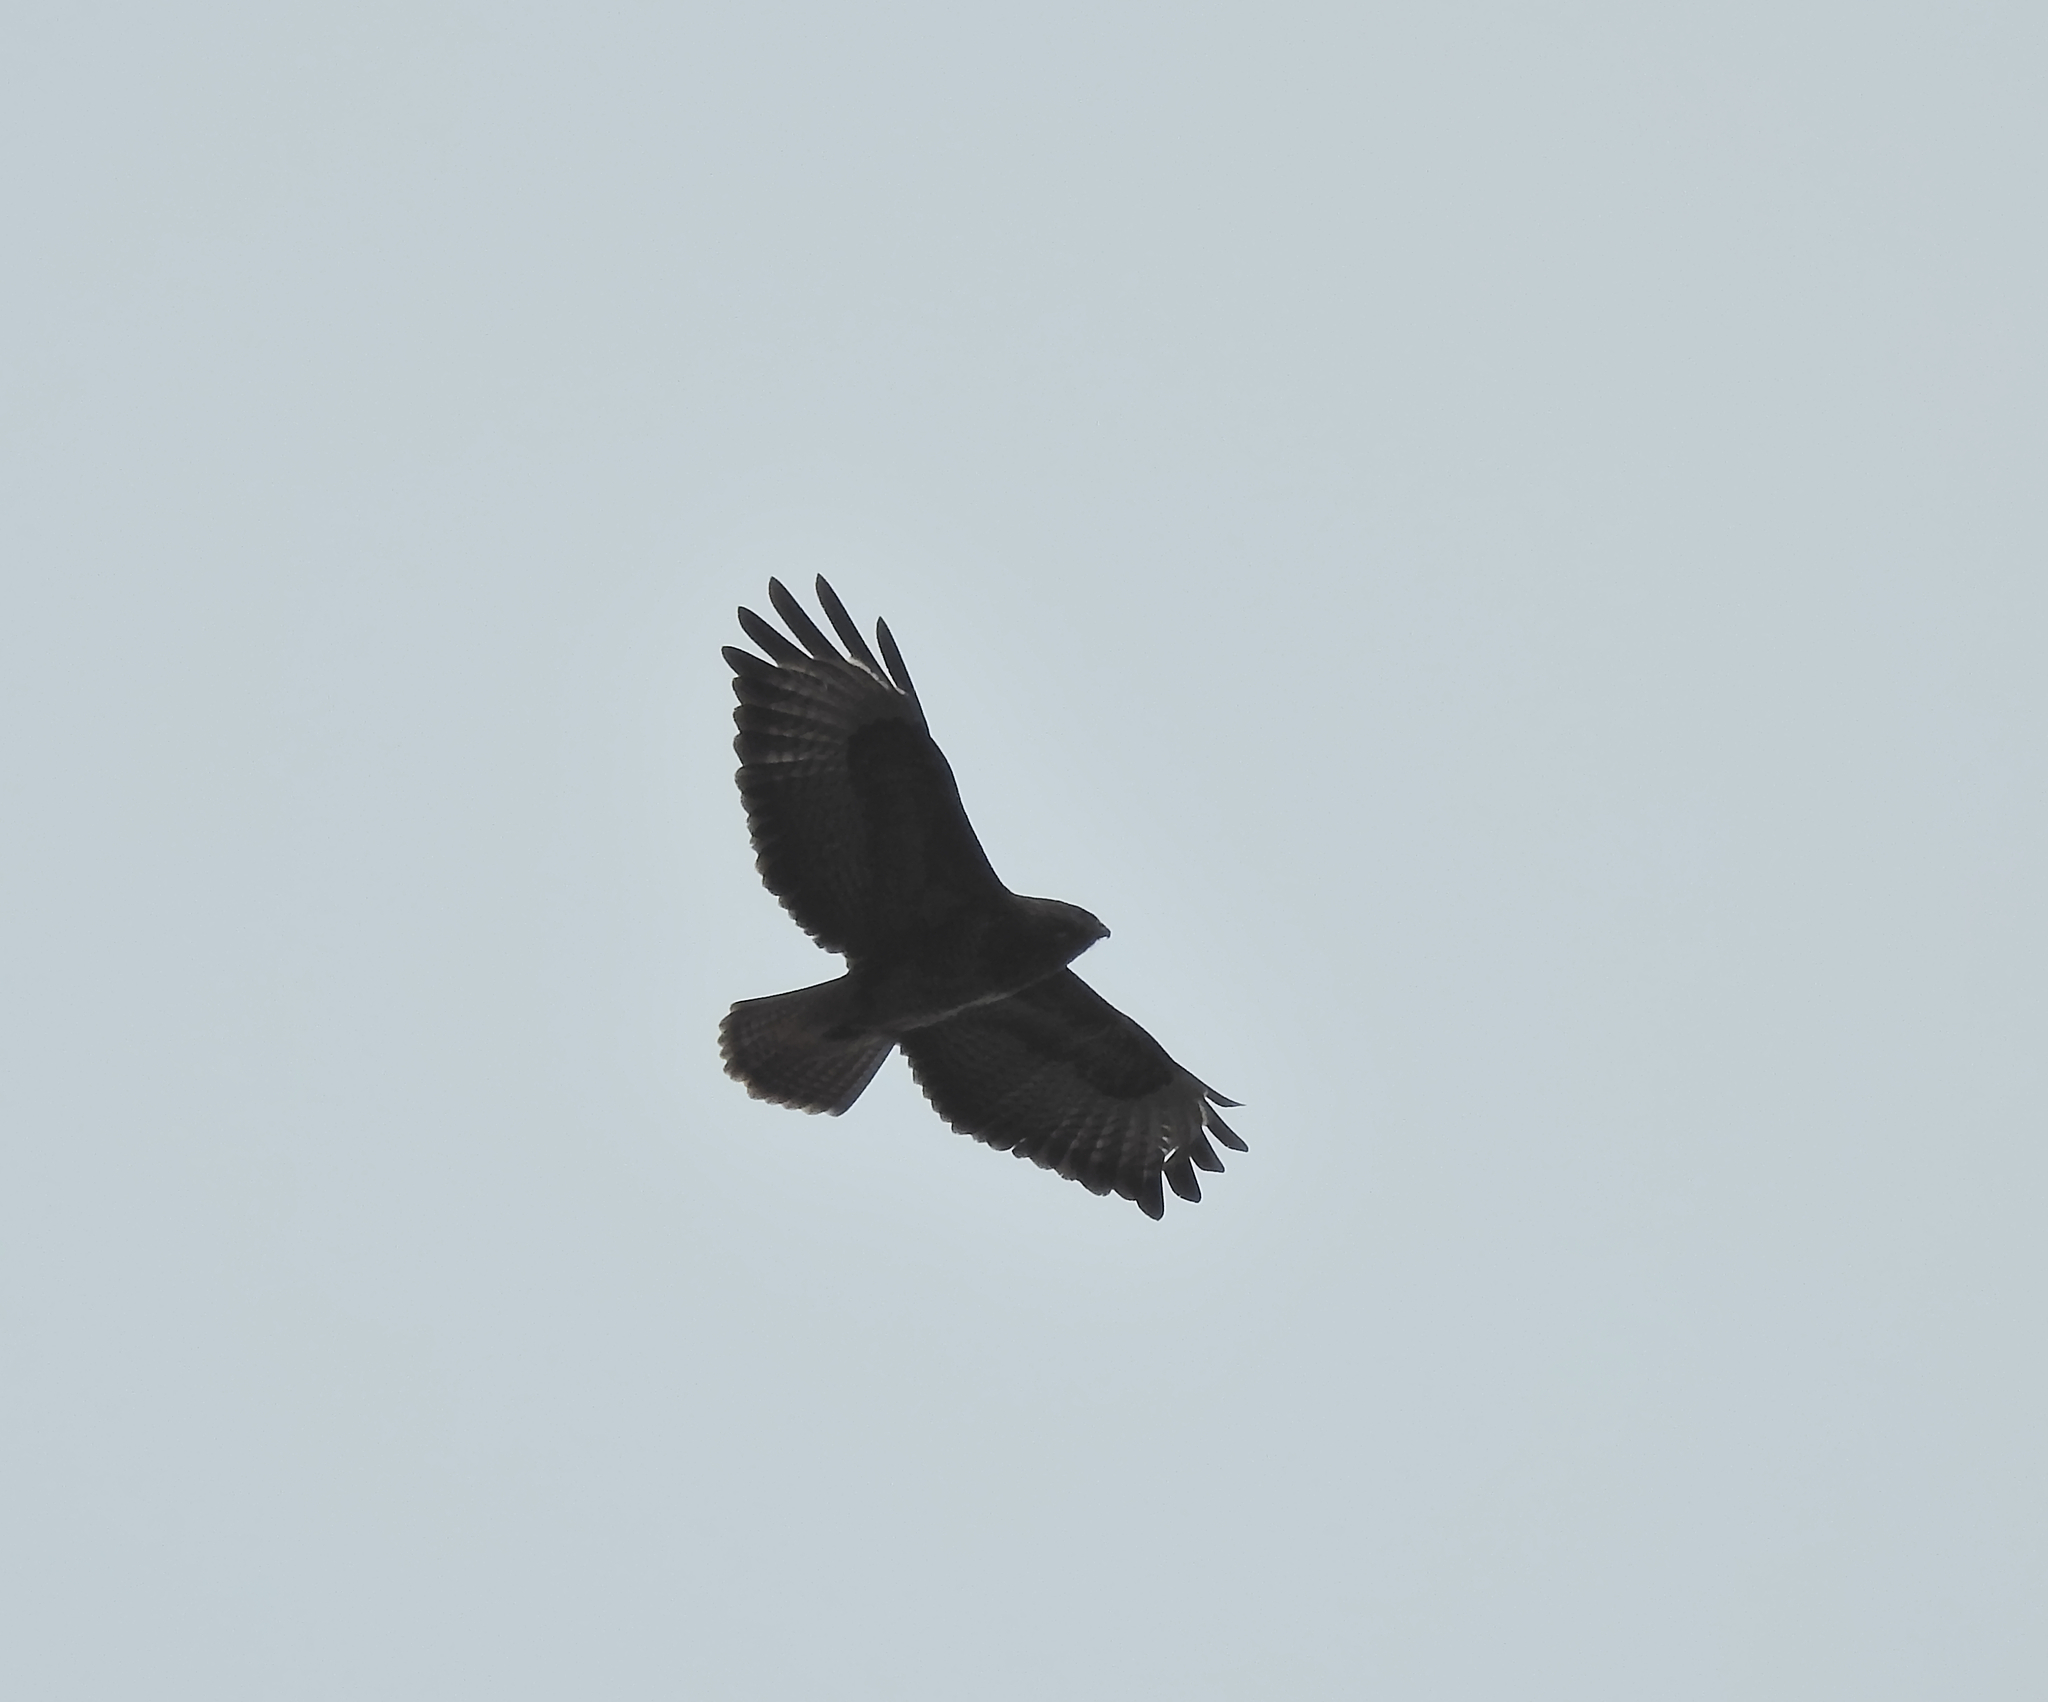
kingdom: Animalia
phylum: Chordata
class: Aves
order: Accipitriformes
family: Accipitridae
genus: Buteo
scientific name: Buteo buteo
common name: Common buzzard
